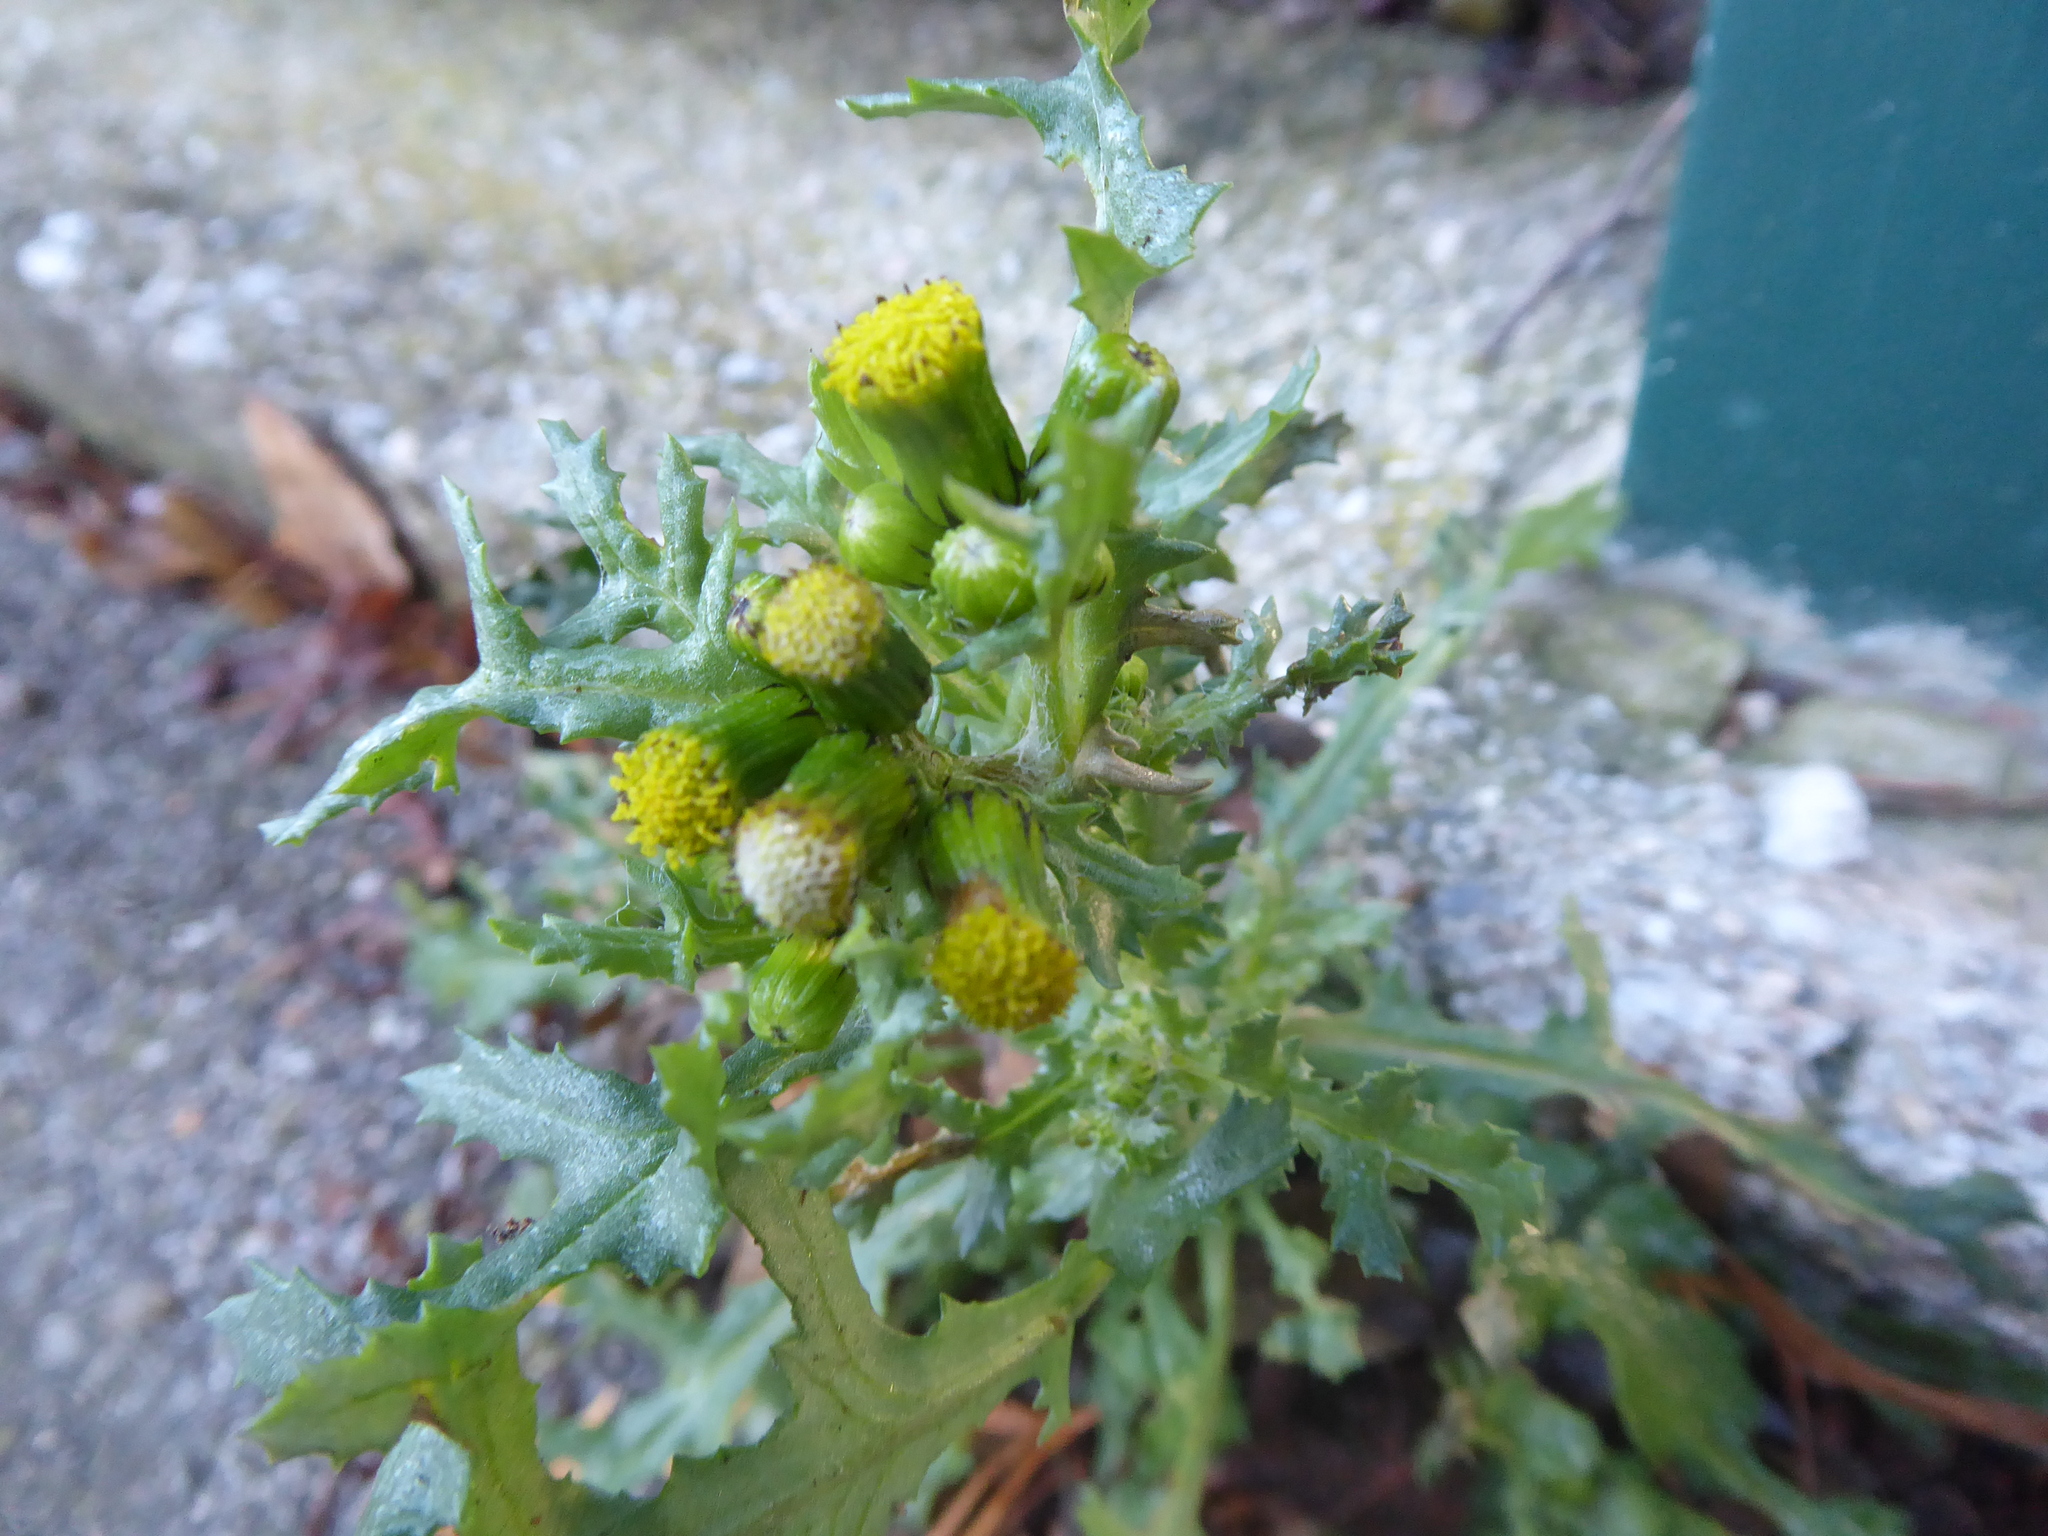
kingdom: Plantae
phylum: Tracheophyta
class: Magnoliopsida
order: Asterales
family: Asteraceae
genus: Senecio
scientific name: Senecio vulgaris
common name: Old-man-in-the-spring
